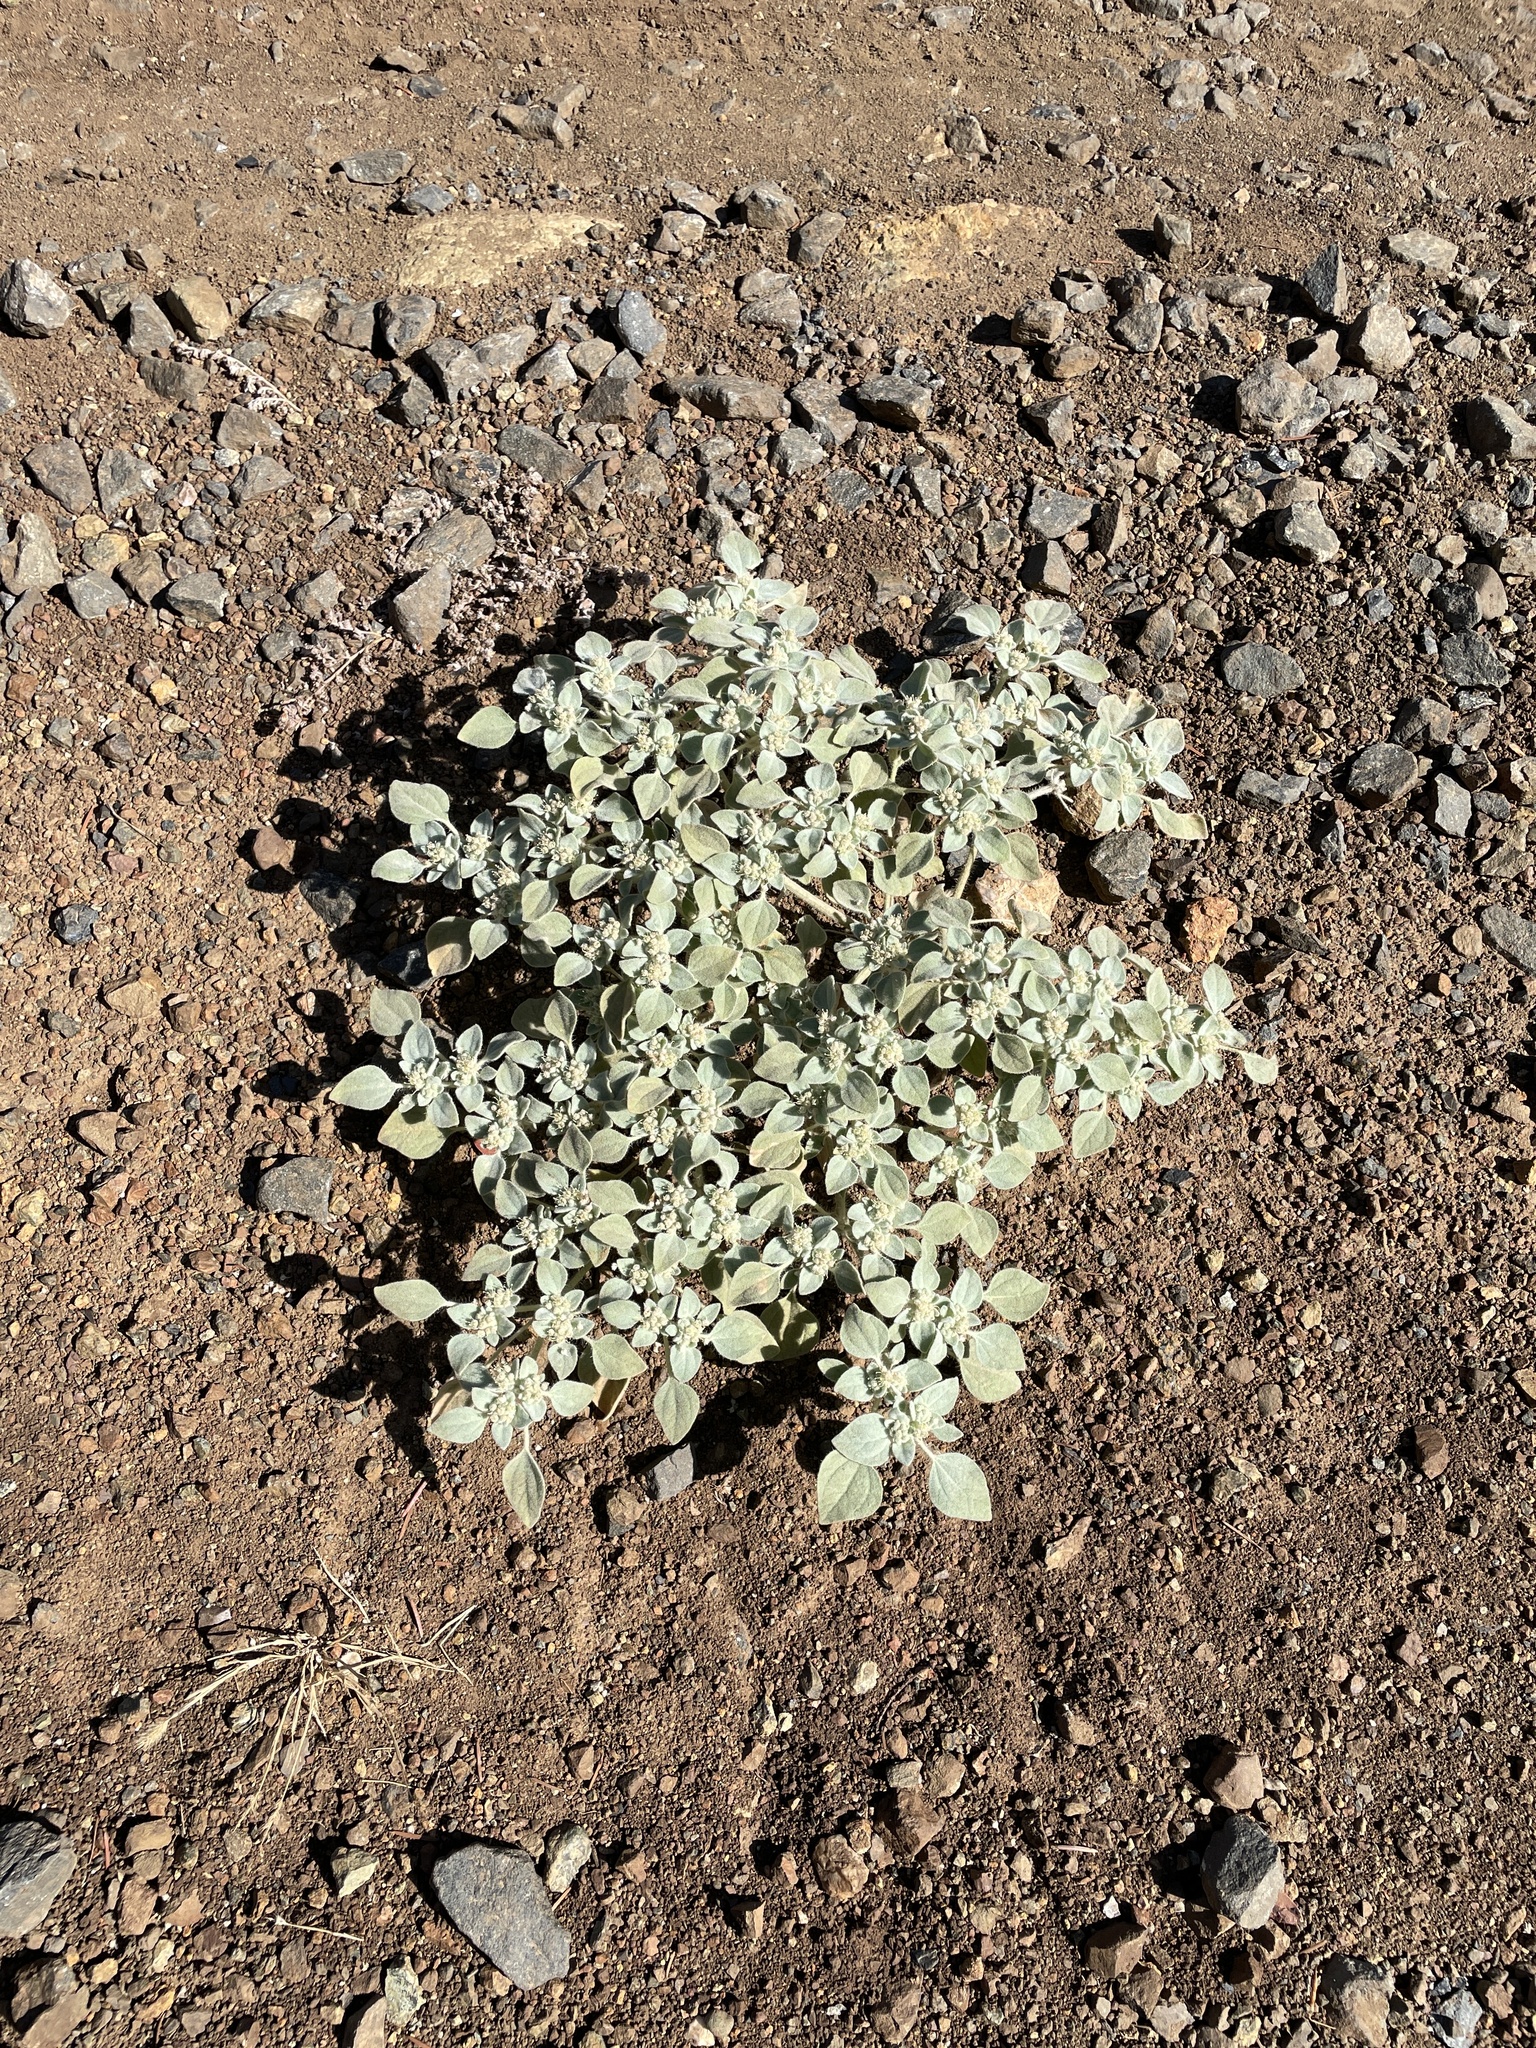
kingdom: Plantae
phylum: Tracheophyta
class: Magnoliopsida
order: Malpighiales
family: Euphorbiaceae
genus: Croton
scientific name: Croton setiger
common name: Dove weed
